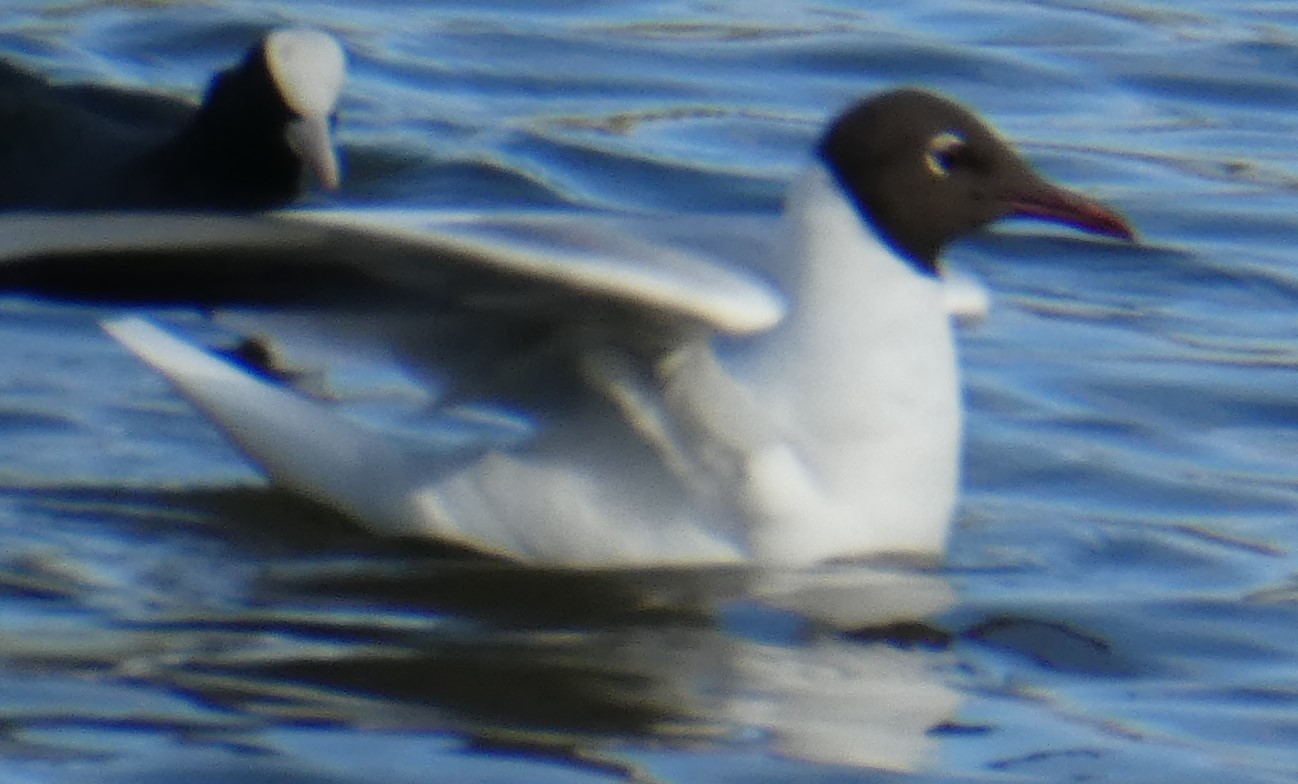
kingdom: Animalia
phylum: Chordata
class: Aves
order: Charadriiformes
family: Laridae
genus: Chroicocephalus
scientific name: Chroicocephalus ridibundus
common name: Black-headed gull
